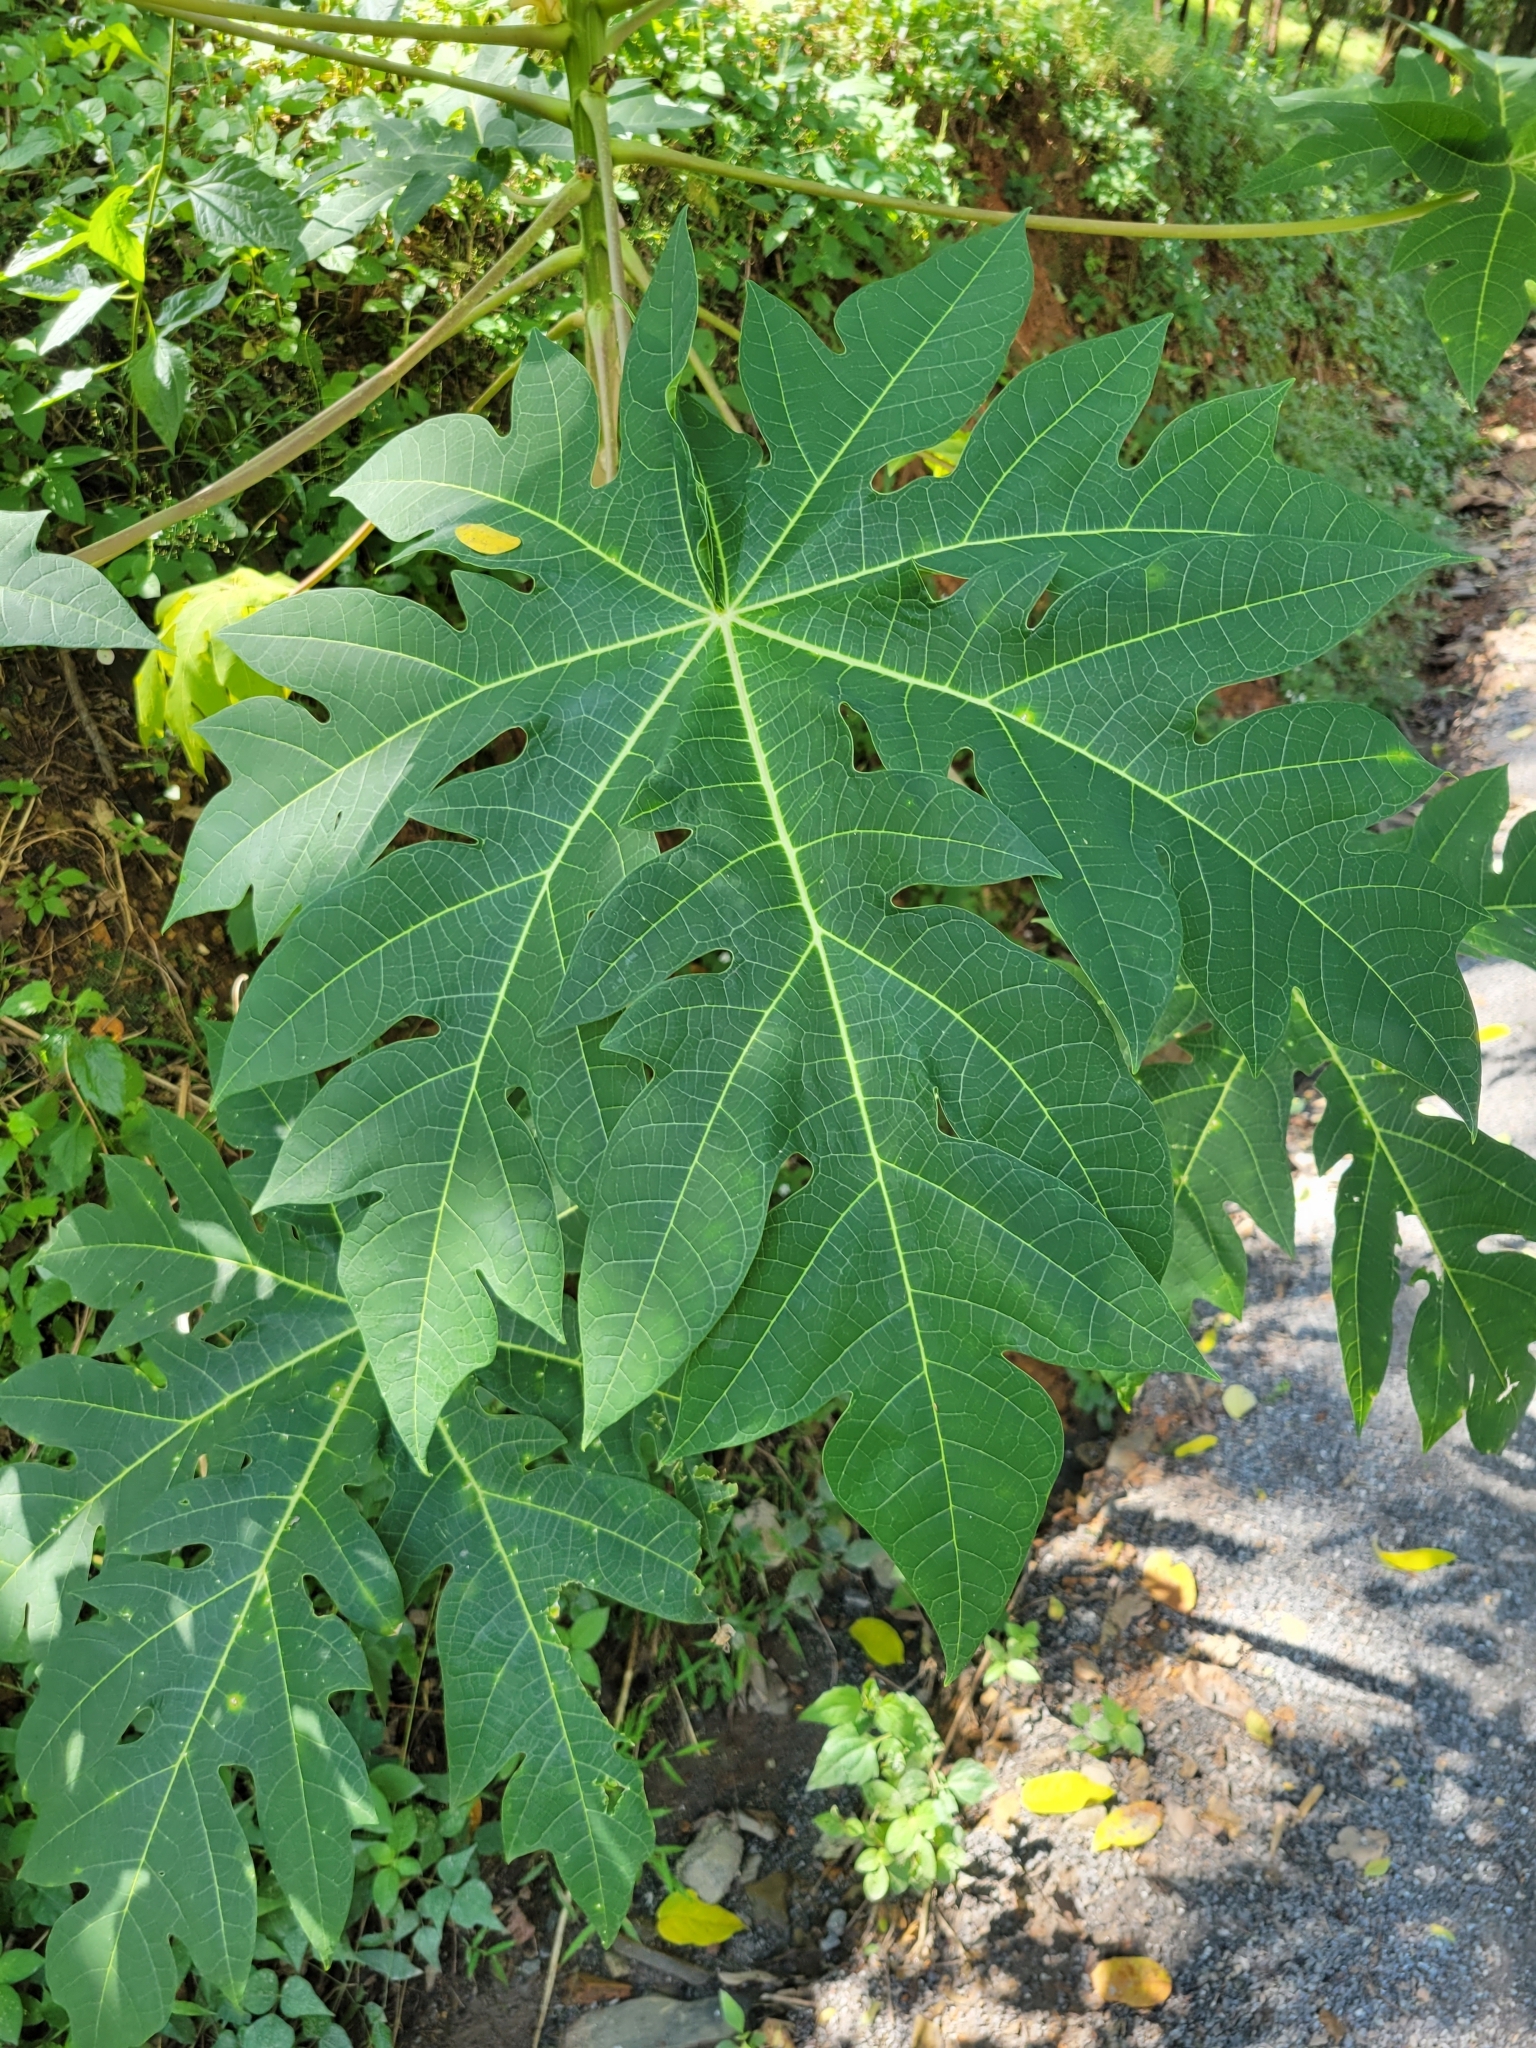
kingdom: Plantae
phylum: Tracheophyta
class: Magnoliopsida
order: Brassicales
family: Caricaceae
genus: Carica
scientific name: Carica papaya
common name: Papaya
